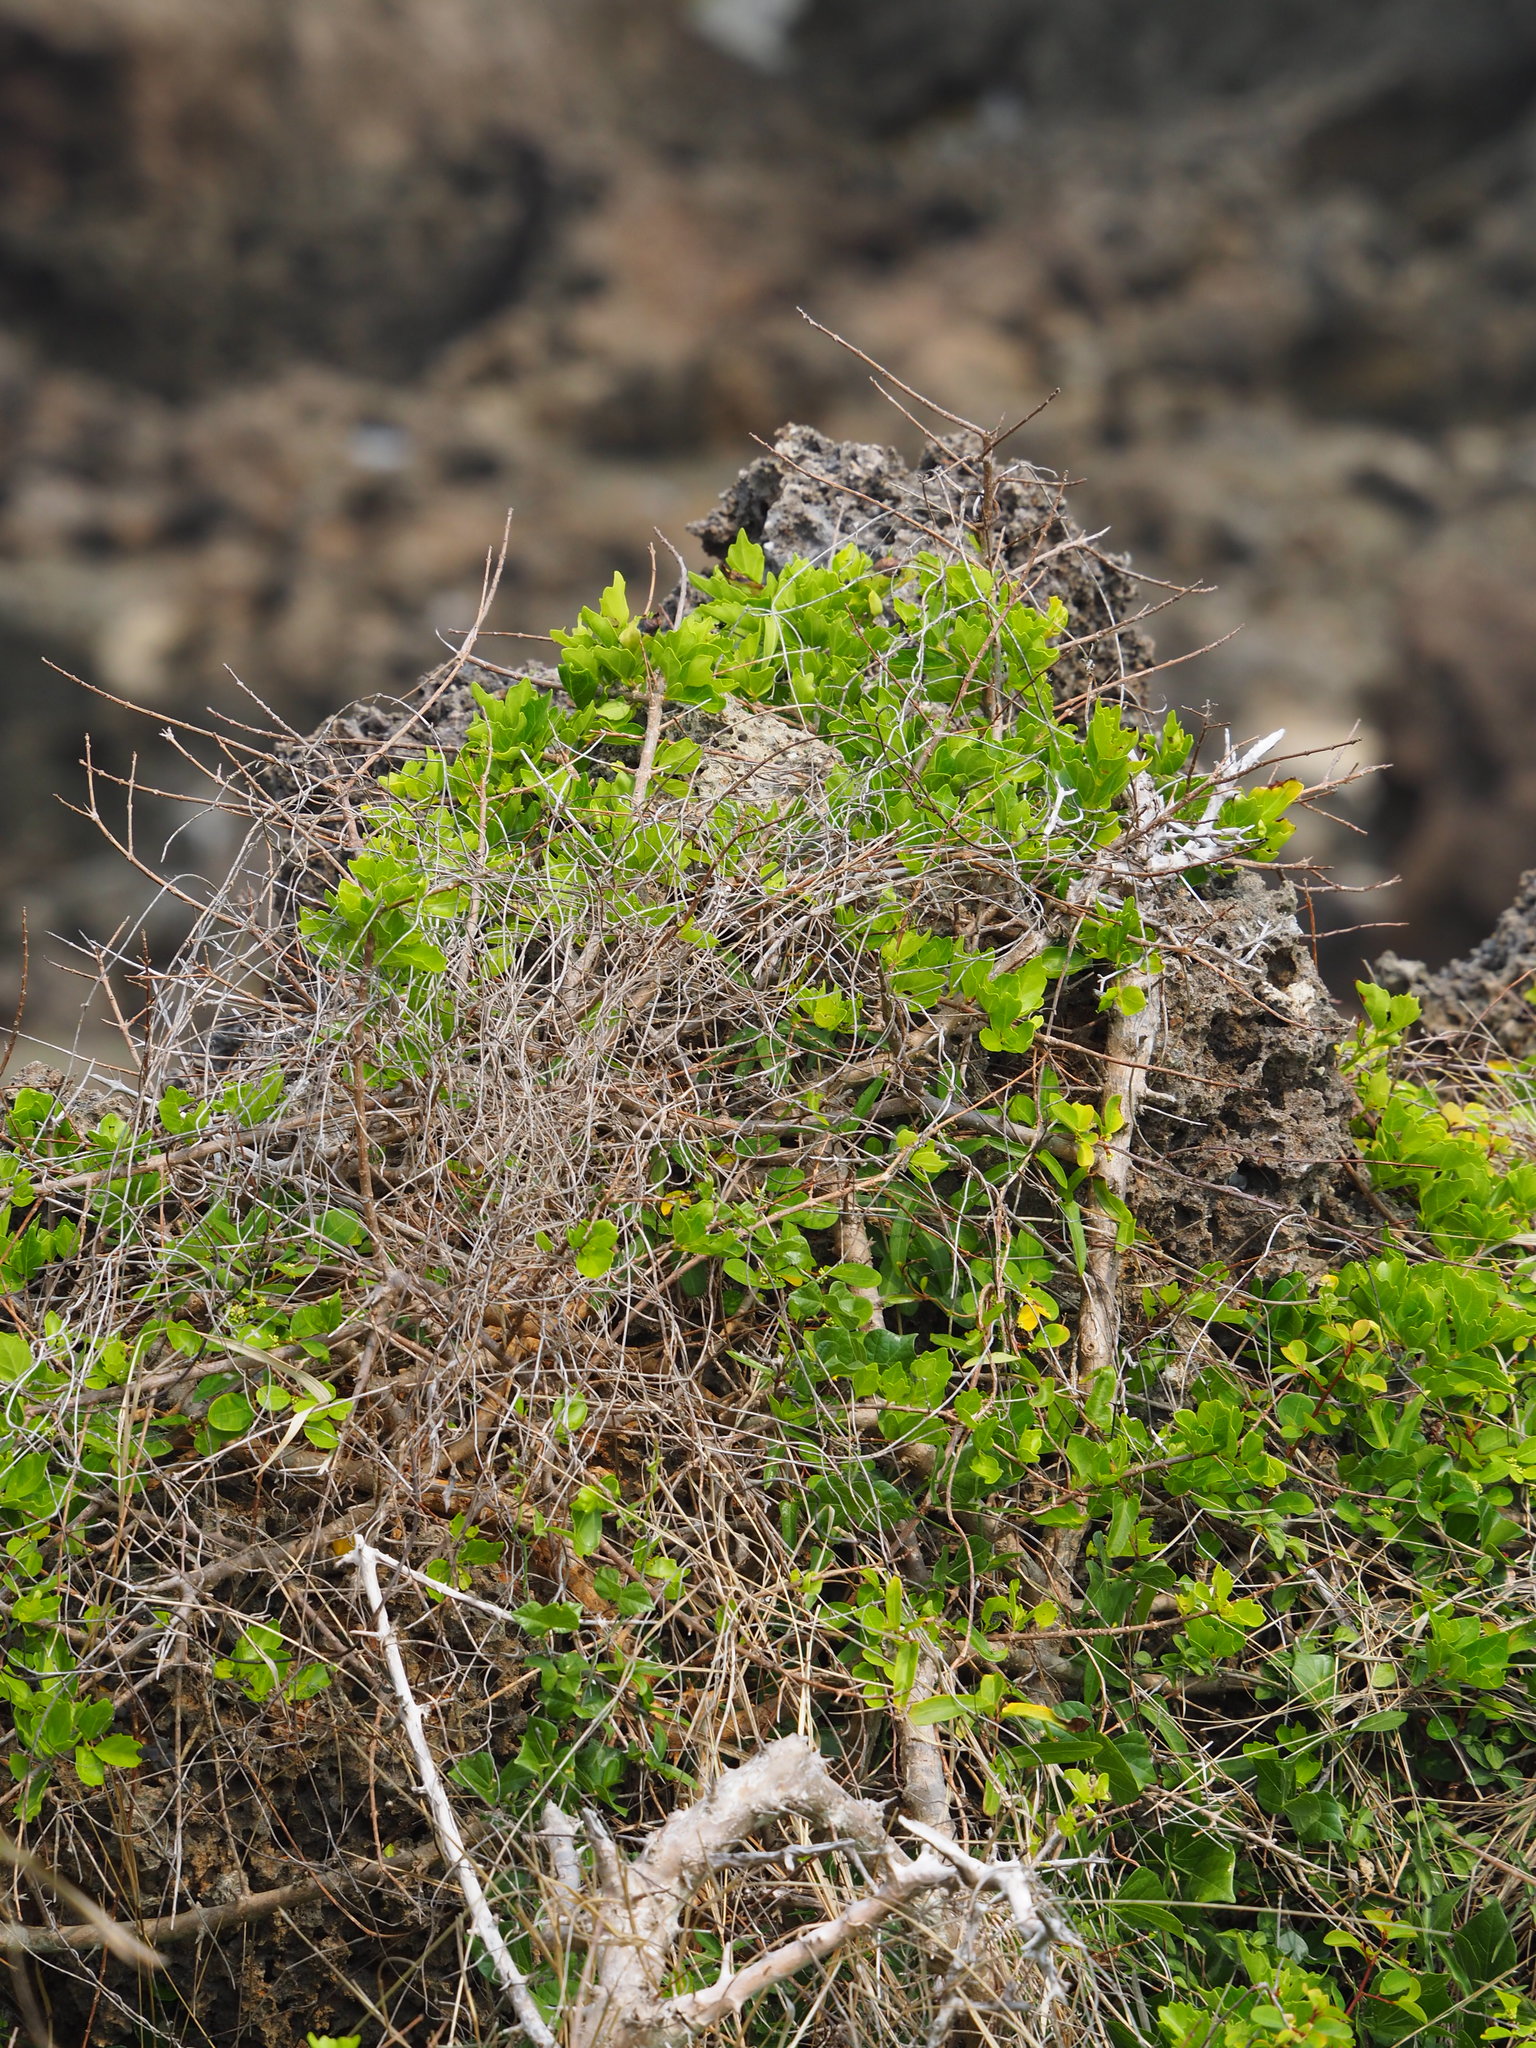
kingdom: Plantae
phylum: Tracheophyta
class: Magnoliopsida
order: Rosales
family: Rhamnaceae
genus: Sageretia
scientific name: Sageretia thea
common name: Pauper's-tea
